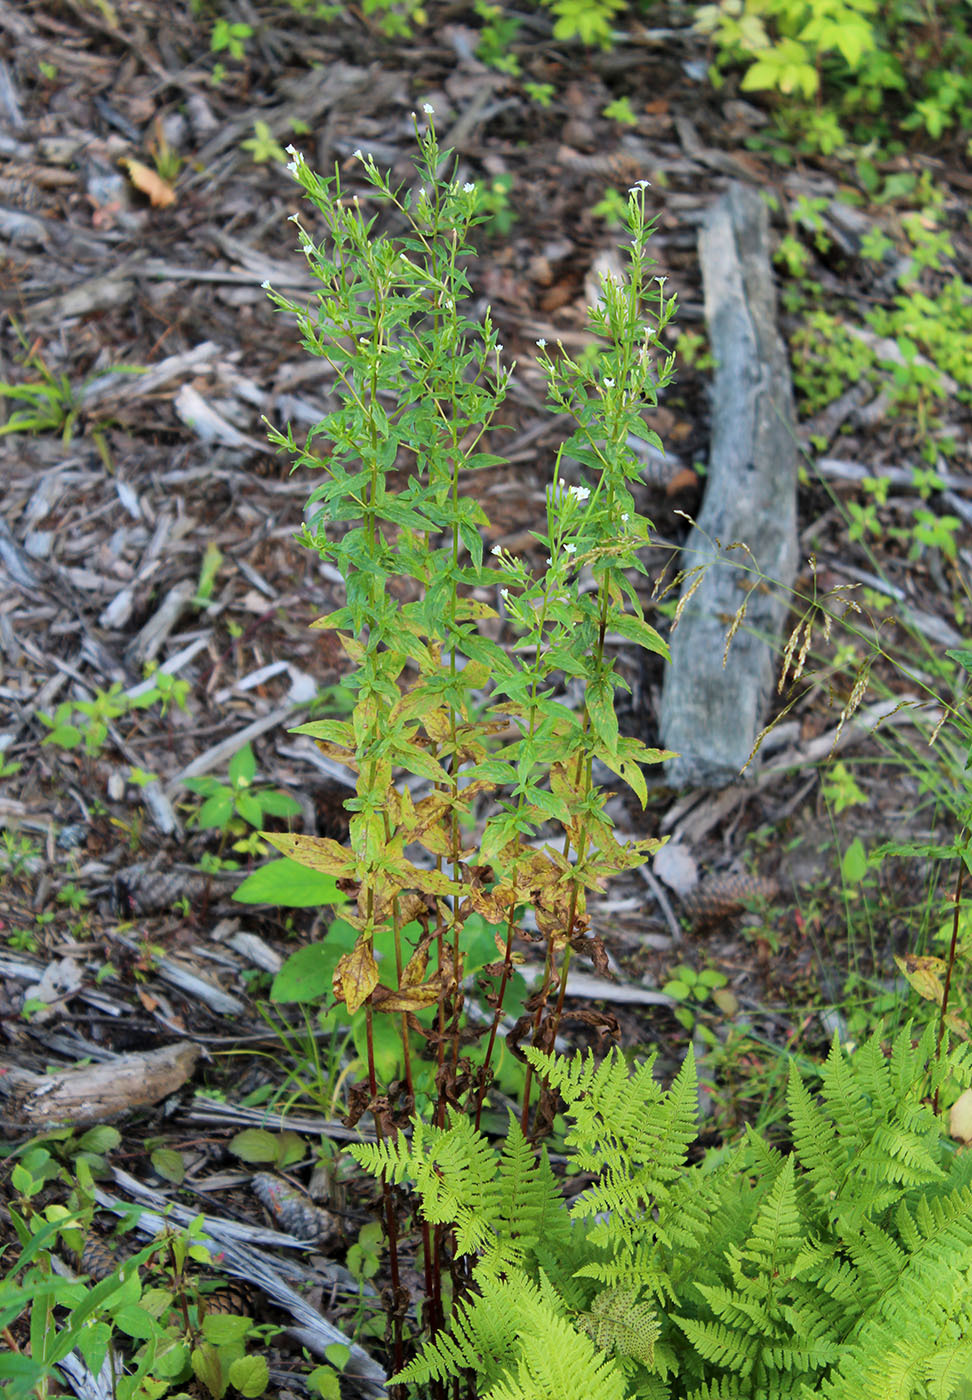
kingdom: Plantae
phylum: Tracheophyta
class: Magnoliopsida
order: Myrtales
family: Onagraceae
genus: Epilobium
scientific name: Epilobium pseudorubescens
